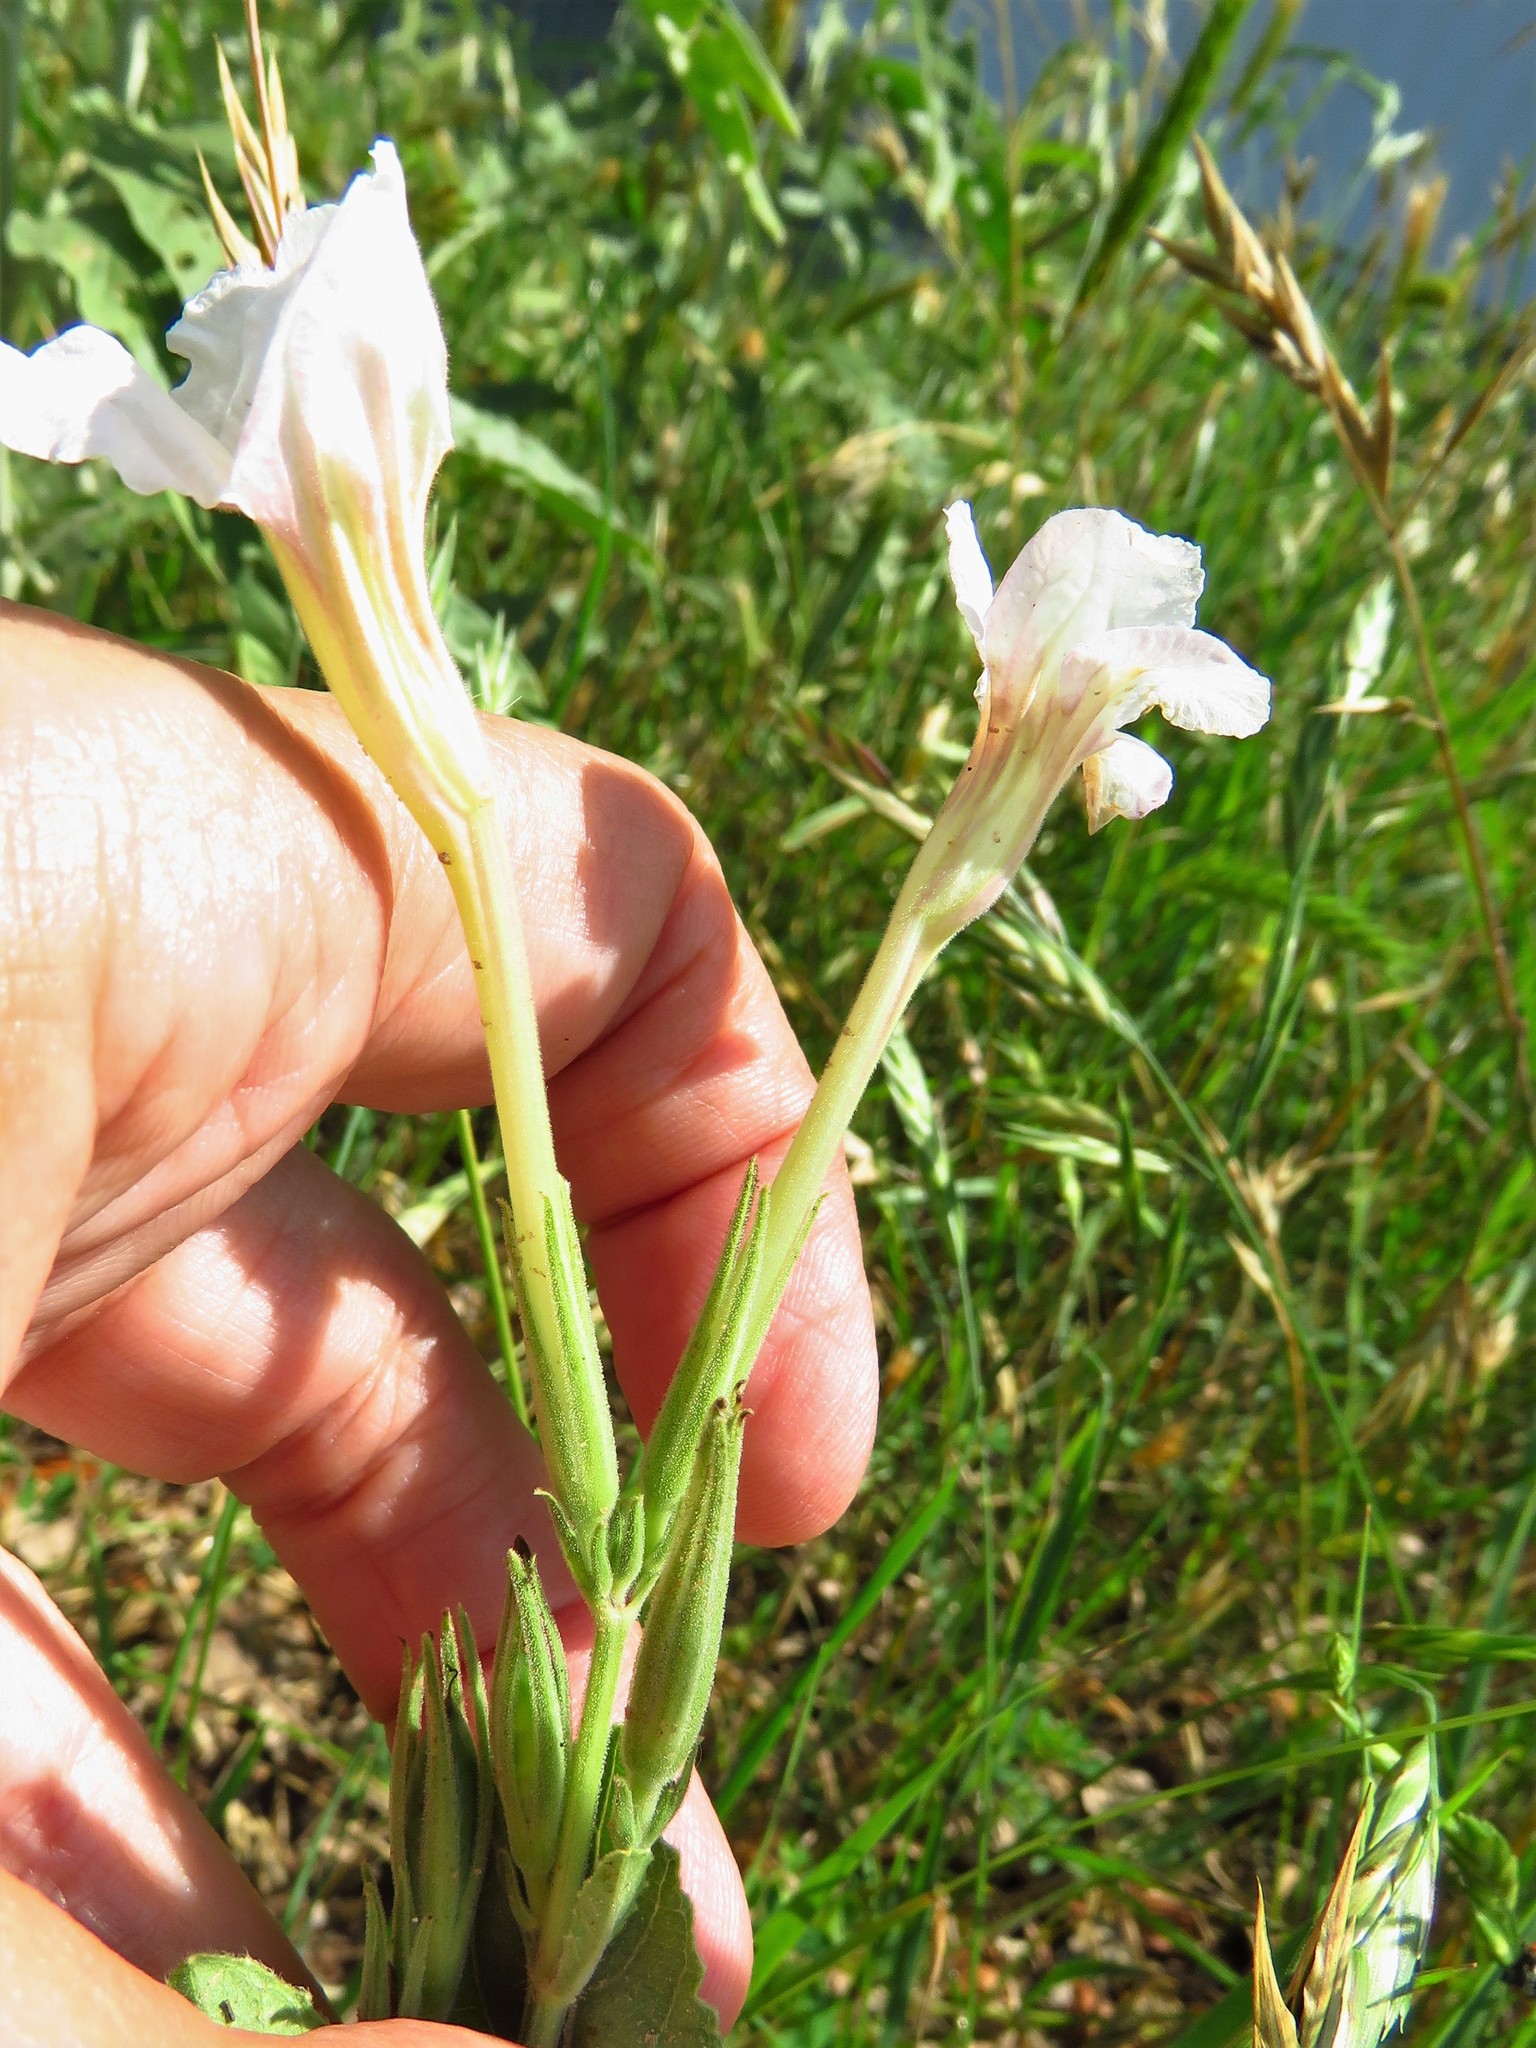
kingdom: Plantae
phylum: Tracheophyta
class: Magnoliopsida
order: Lamiales
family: Acanthaceae
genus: Ruellia
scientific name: Ruellia metziae
